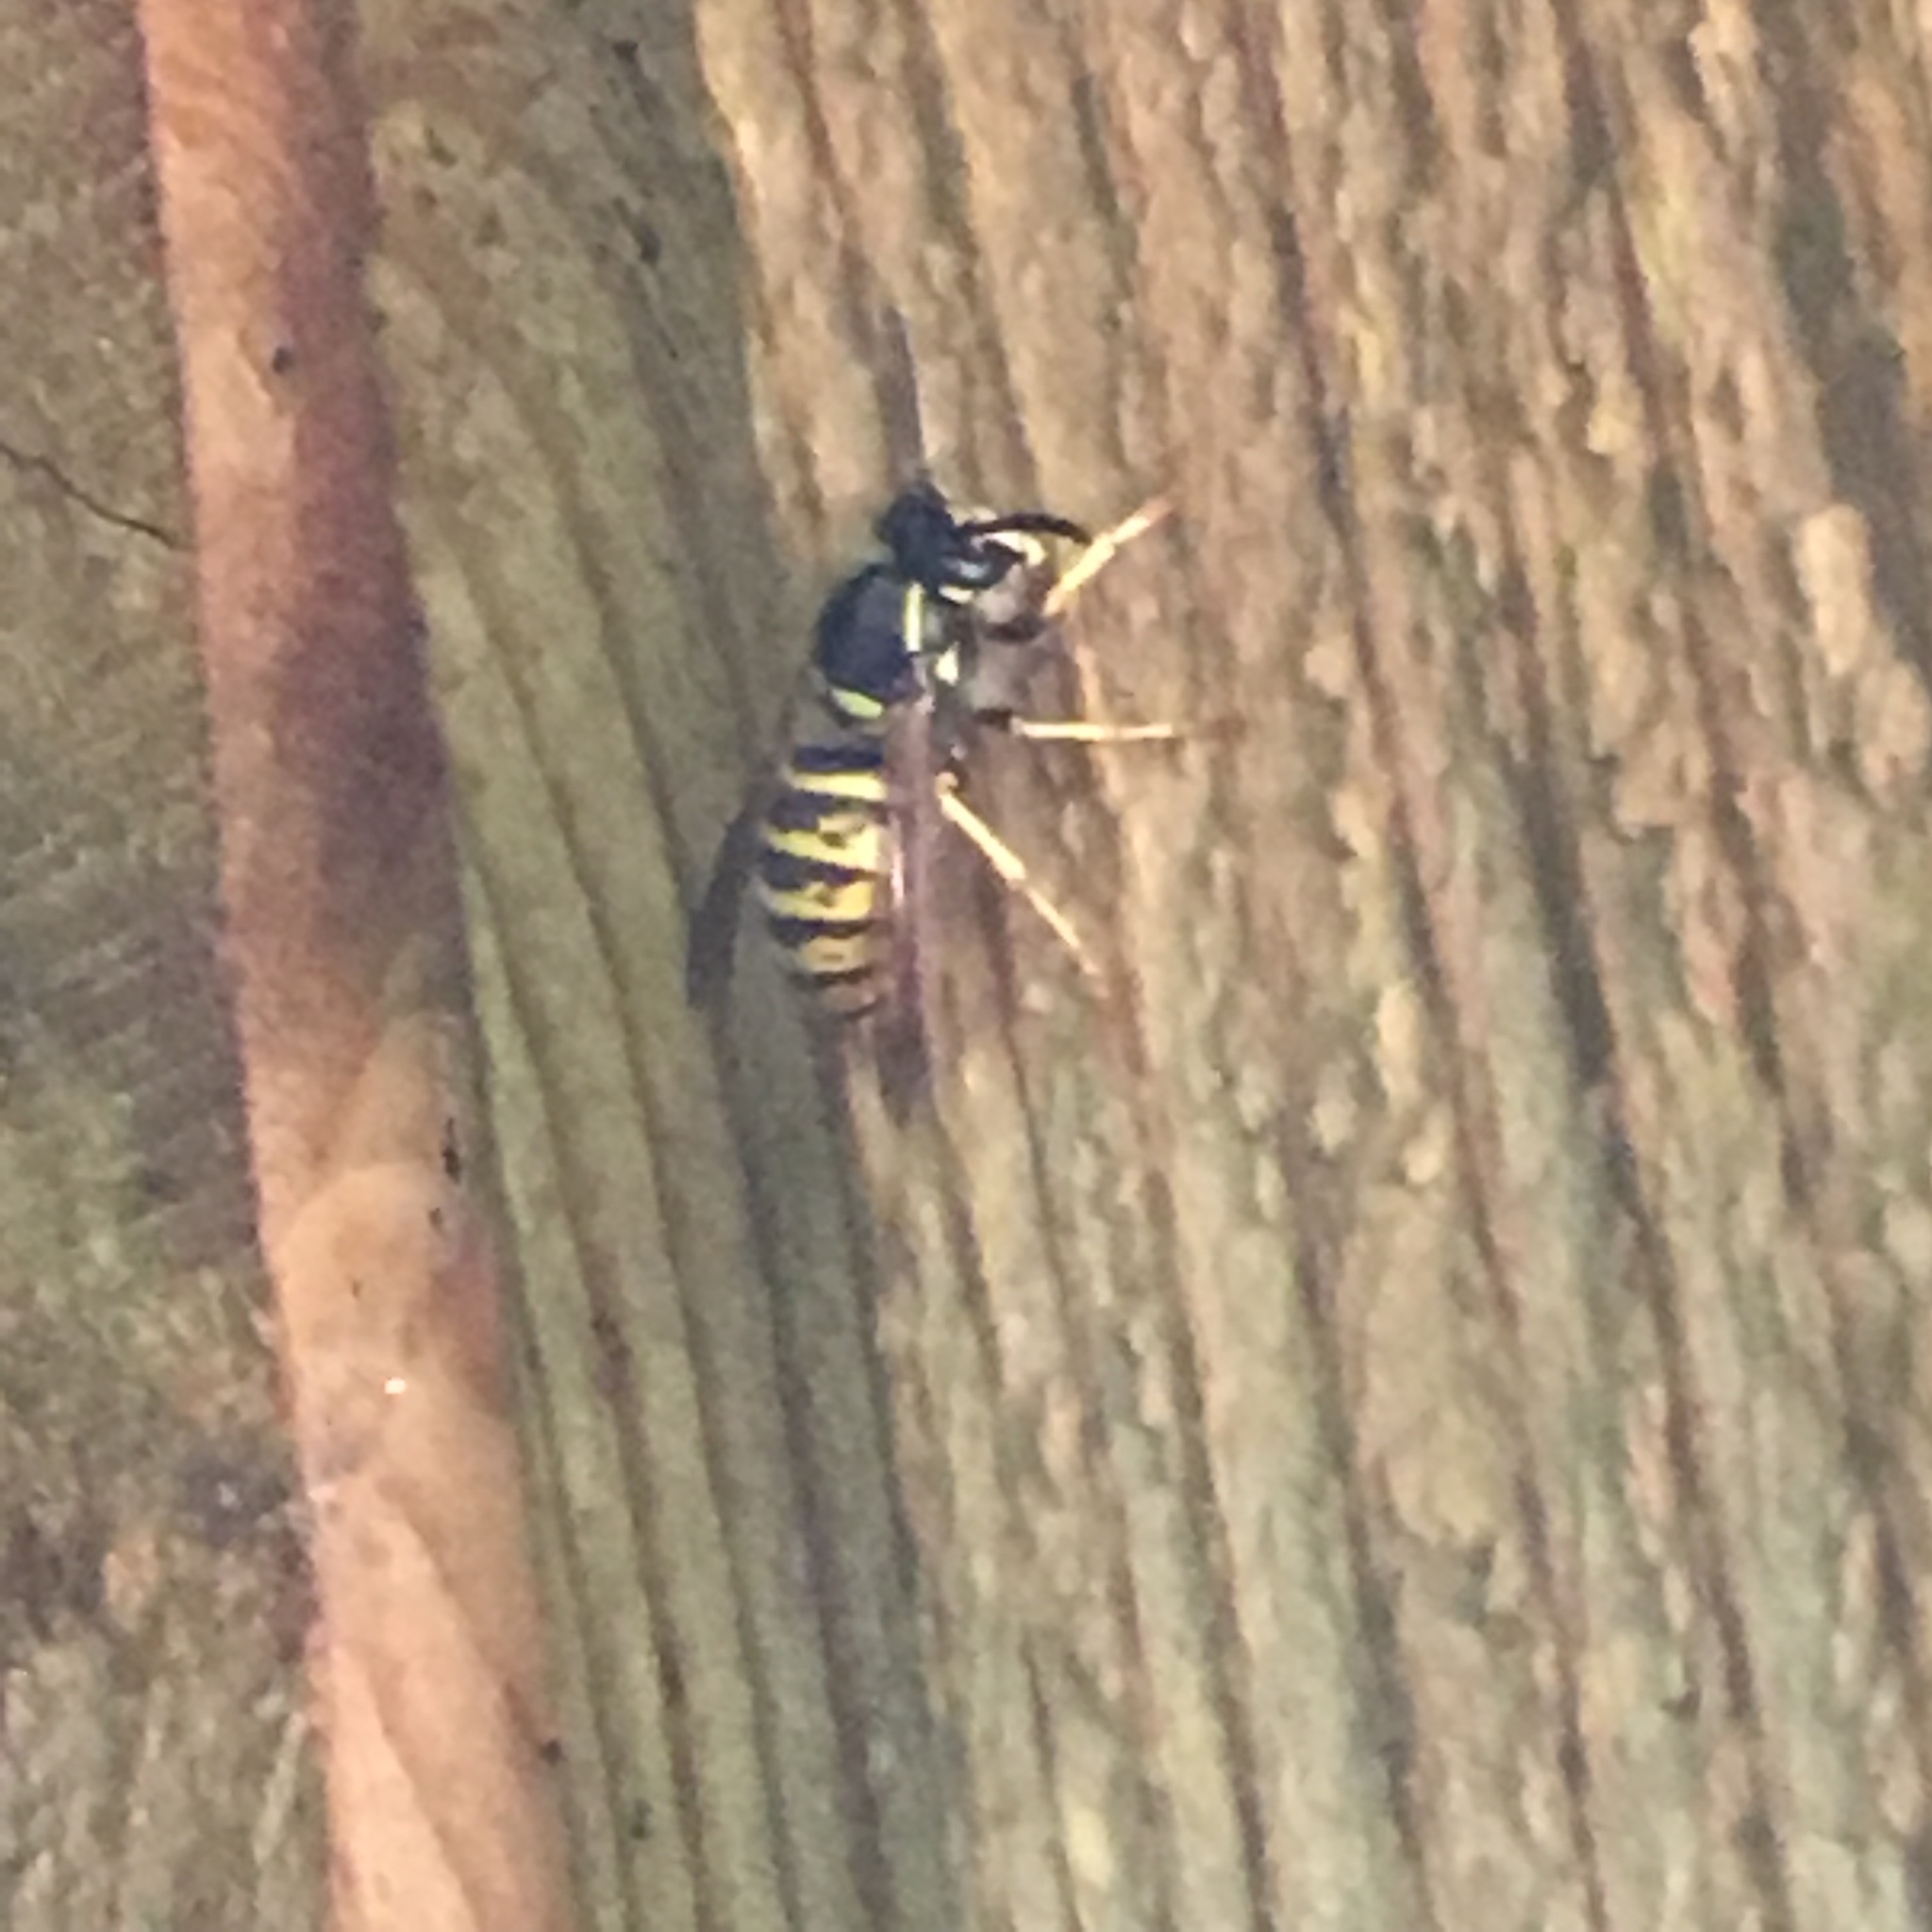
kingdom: Animalia
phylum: Arthropoda
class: Insecta
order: Hymenoptera
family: Vespidae
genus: Dolichovespula
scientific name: Dolichovespula saxonica
